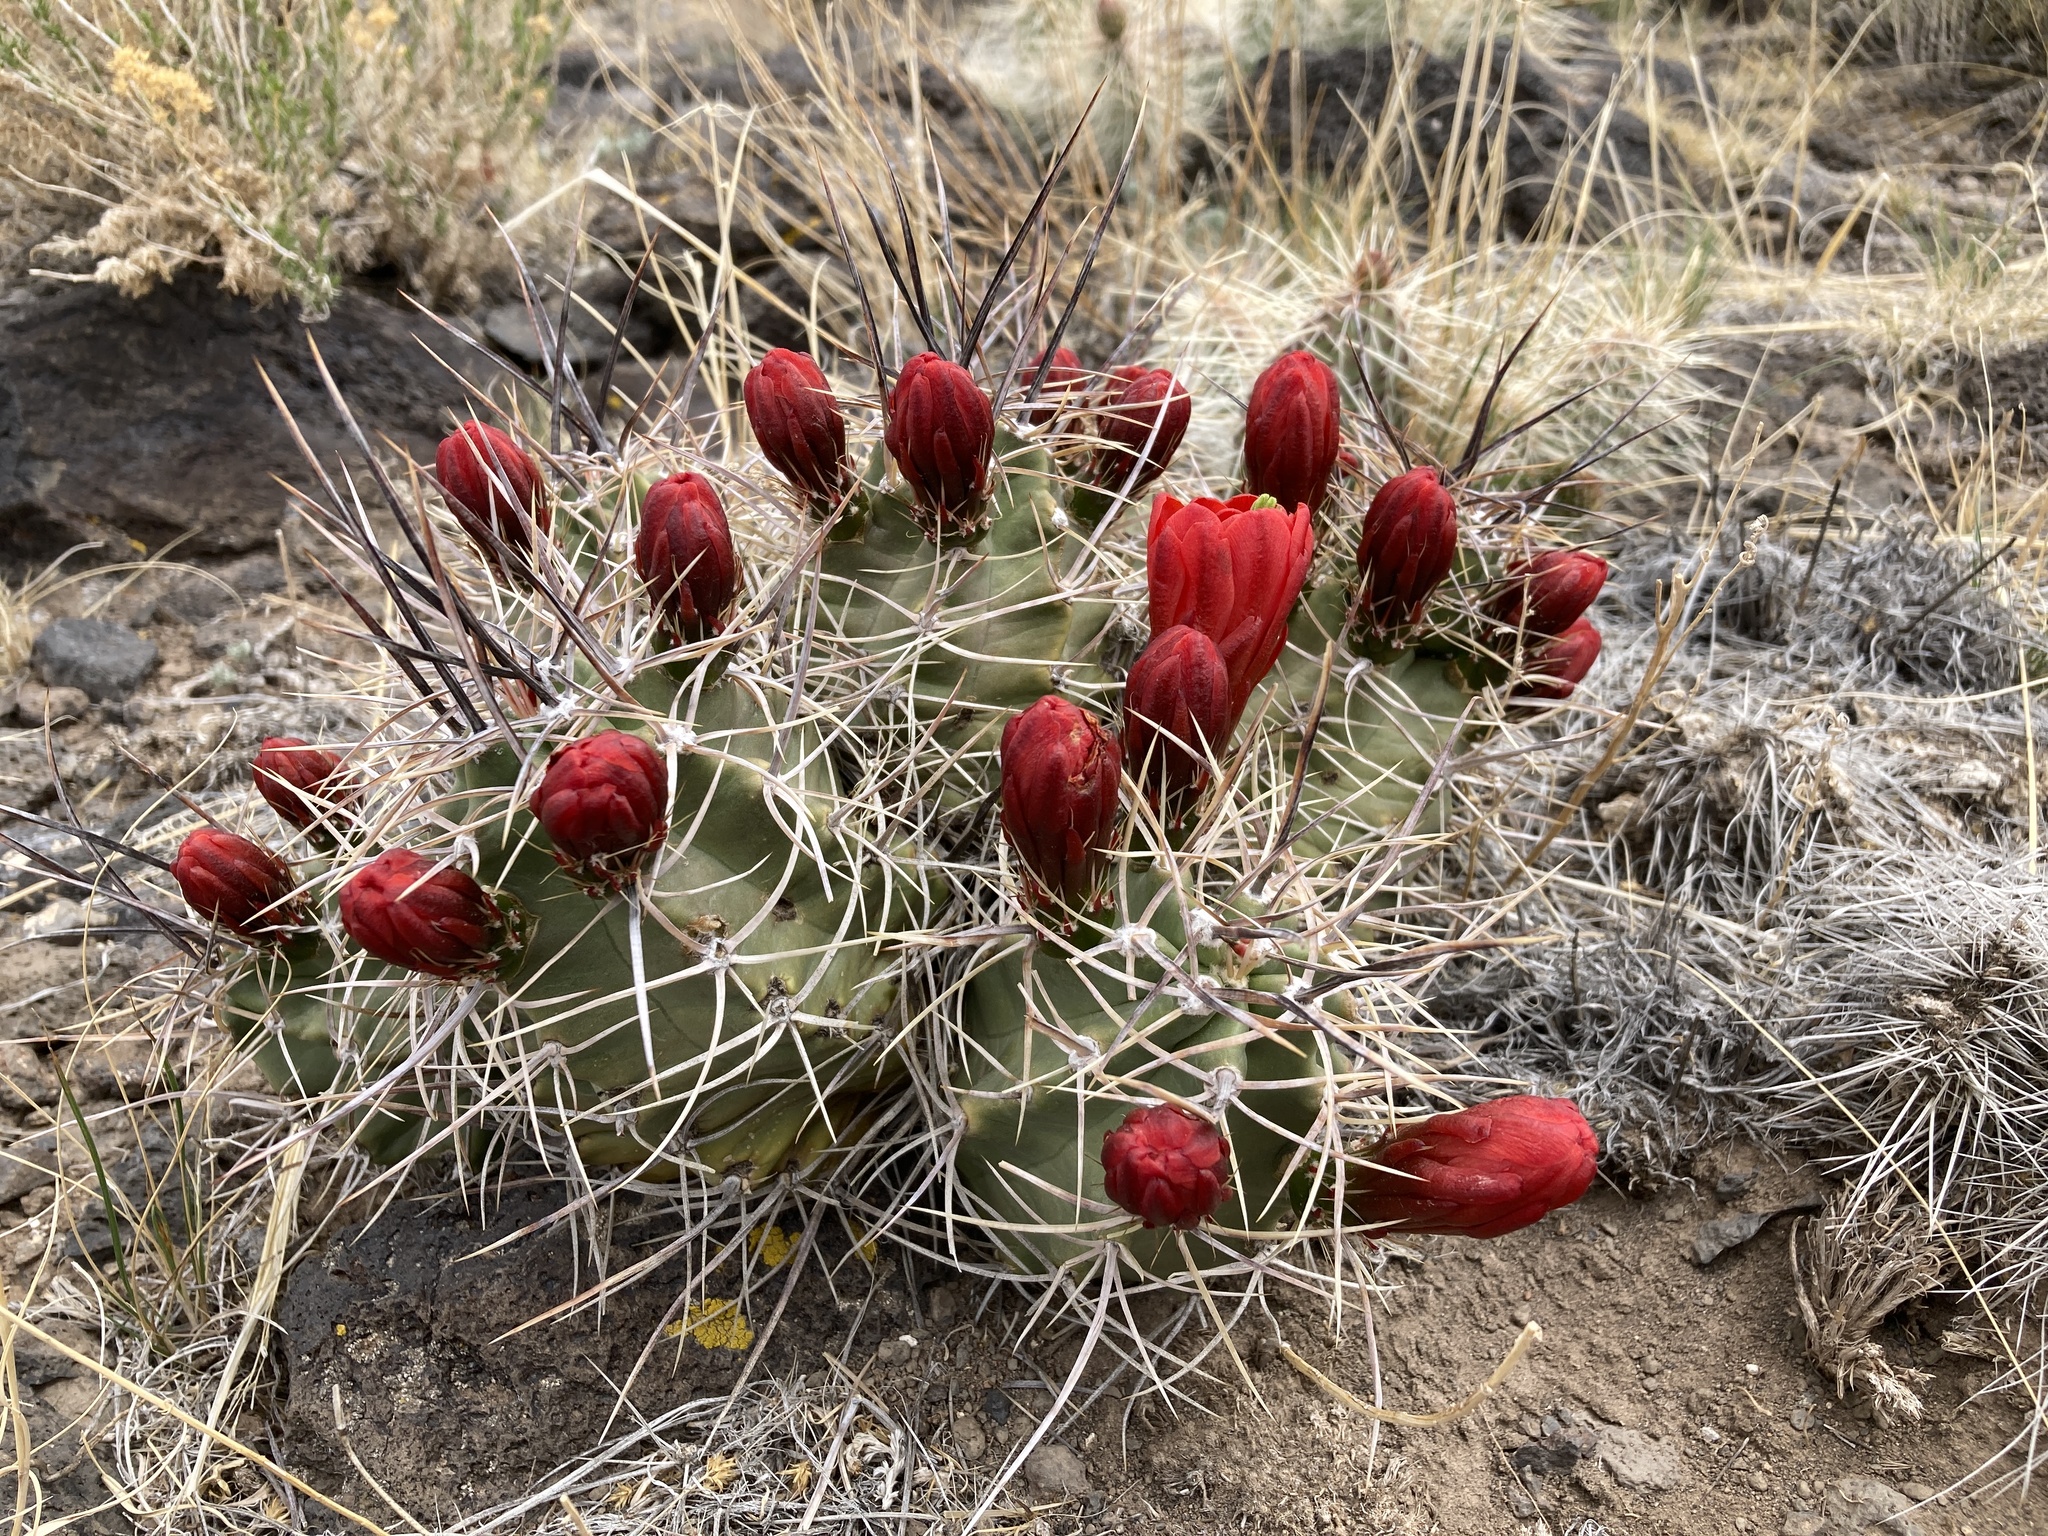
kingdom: Plantae
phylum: Tracheophyta
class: Magnoliopsida
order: Caryophyllales
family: Cactaceae
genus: Echinocereus
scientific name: Echinocereus triglochidiatus
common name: Claretcup hedgehog
